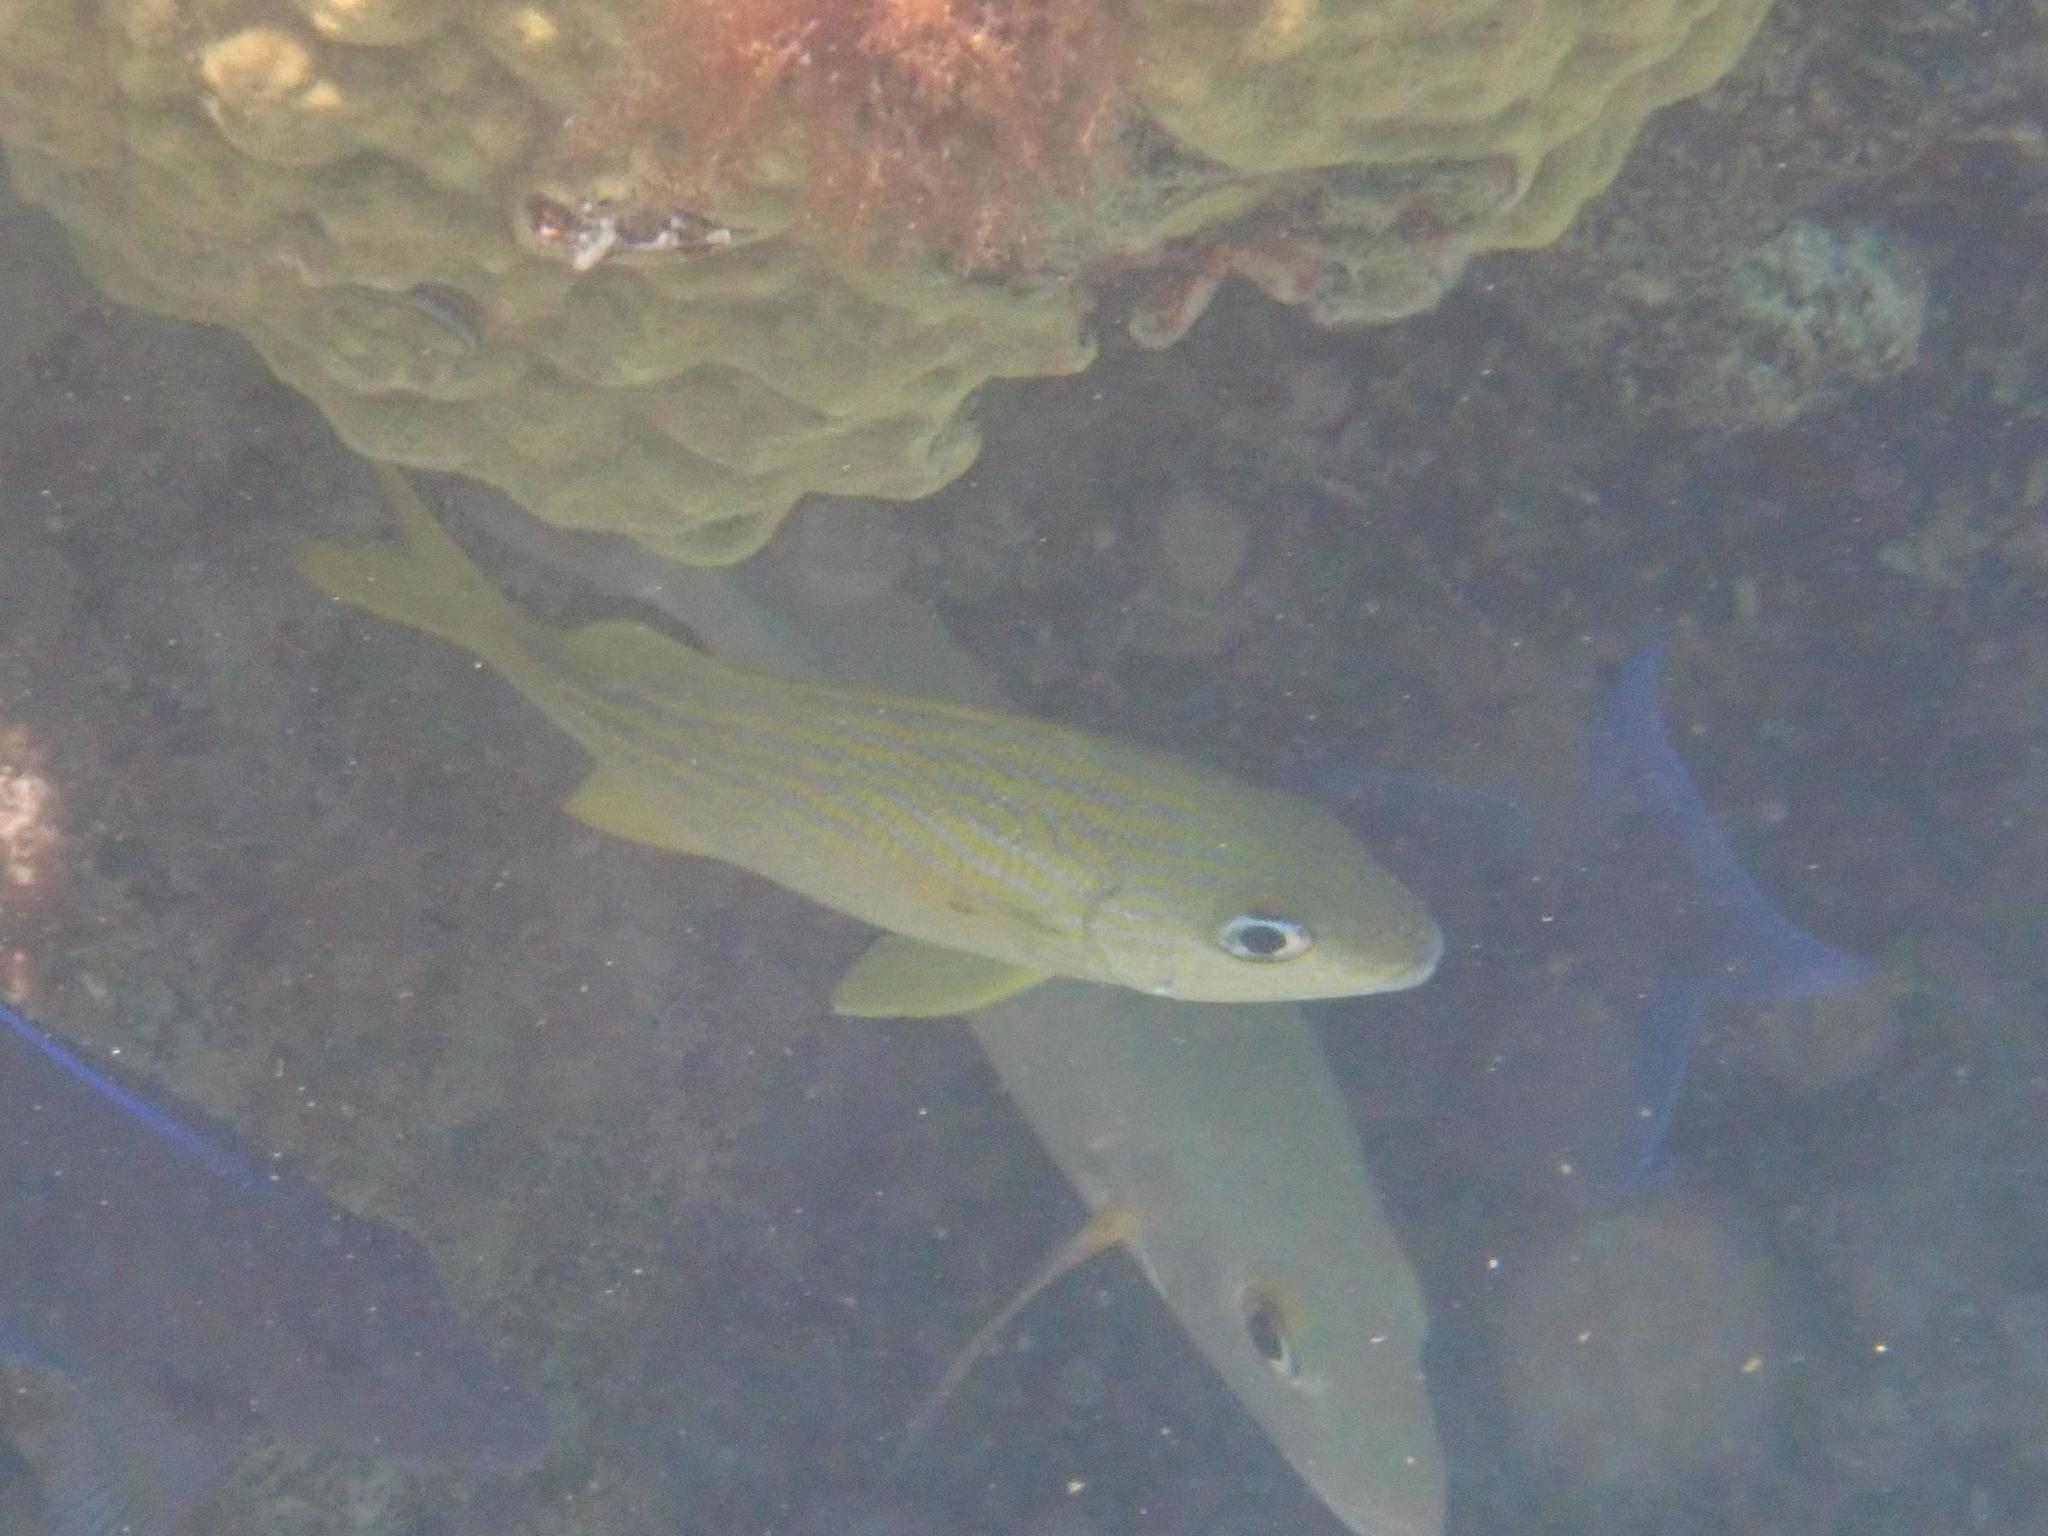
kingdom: Animalia
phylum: Chordata
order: Perciformes
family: Haemulidae
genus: Haemulon
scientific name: Haemulon flavolineatum
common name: French grunt
